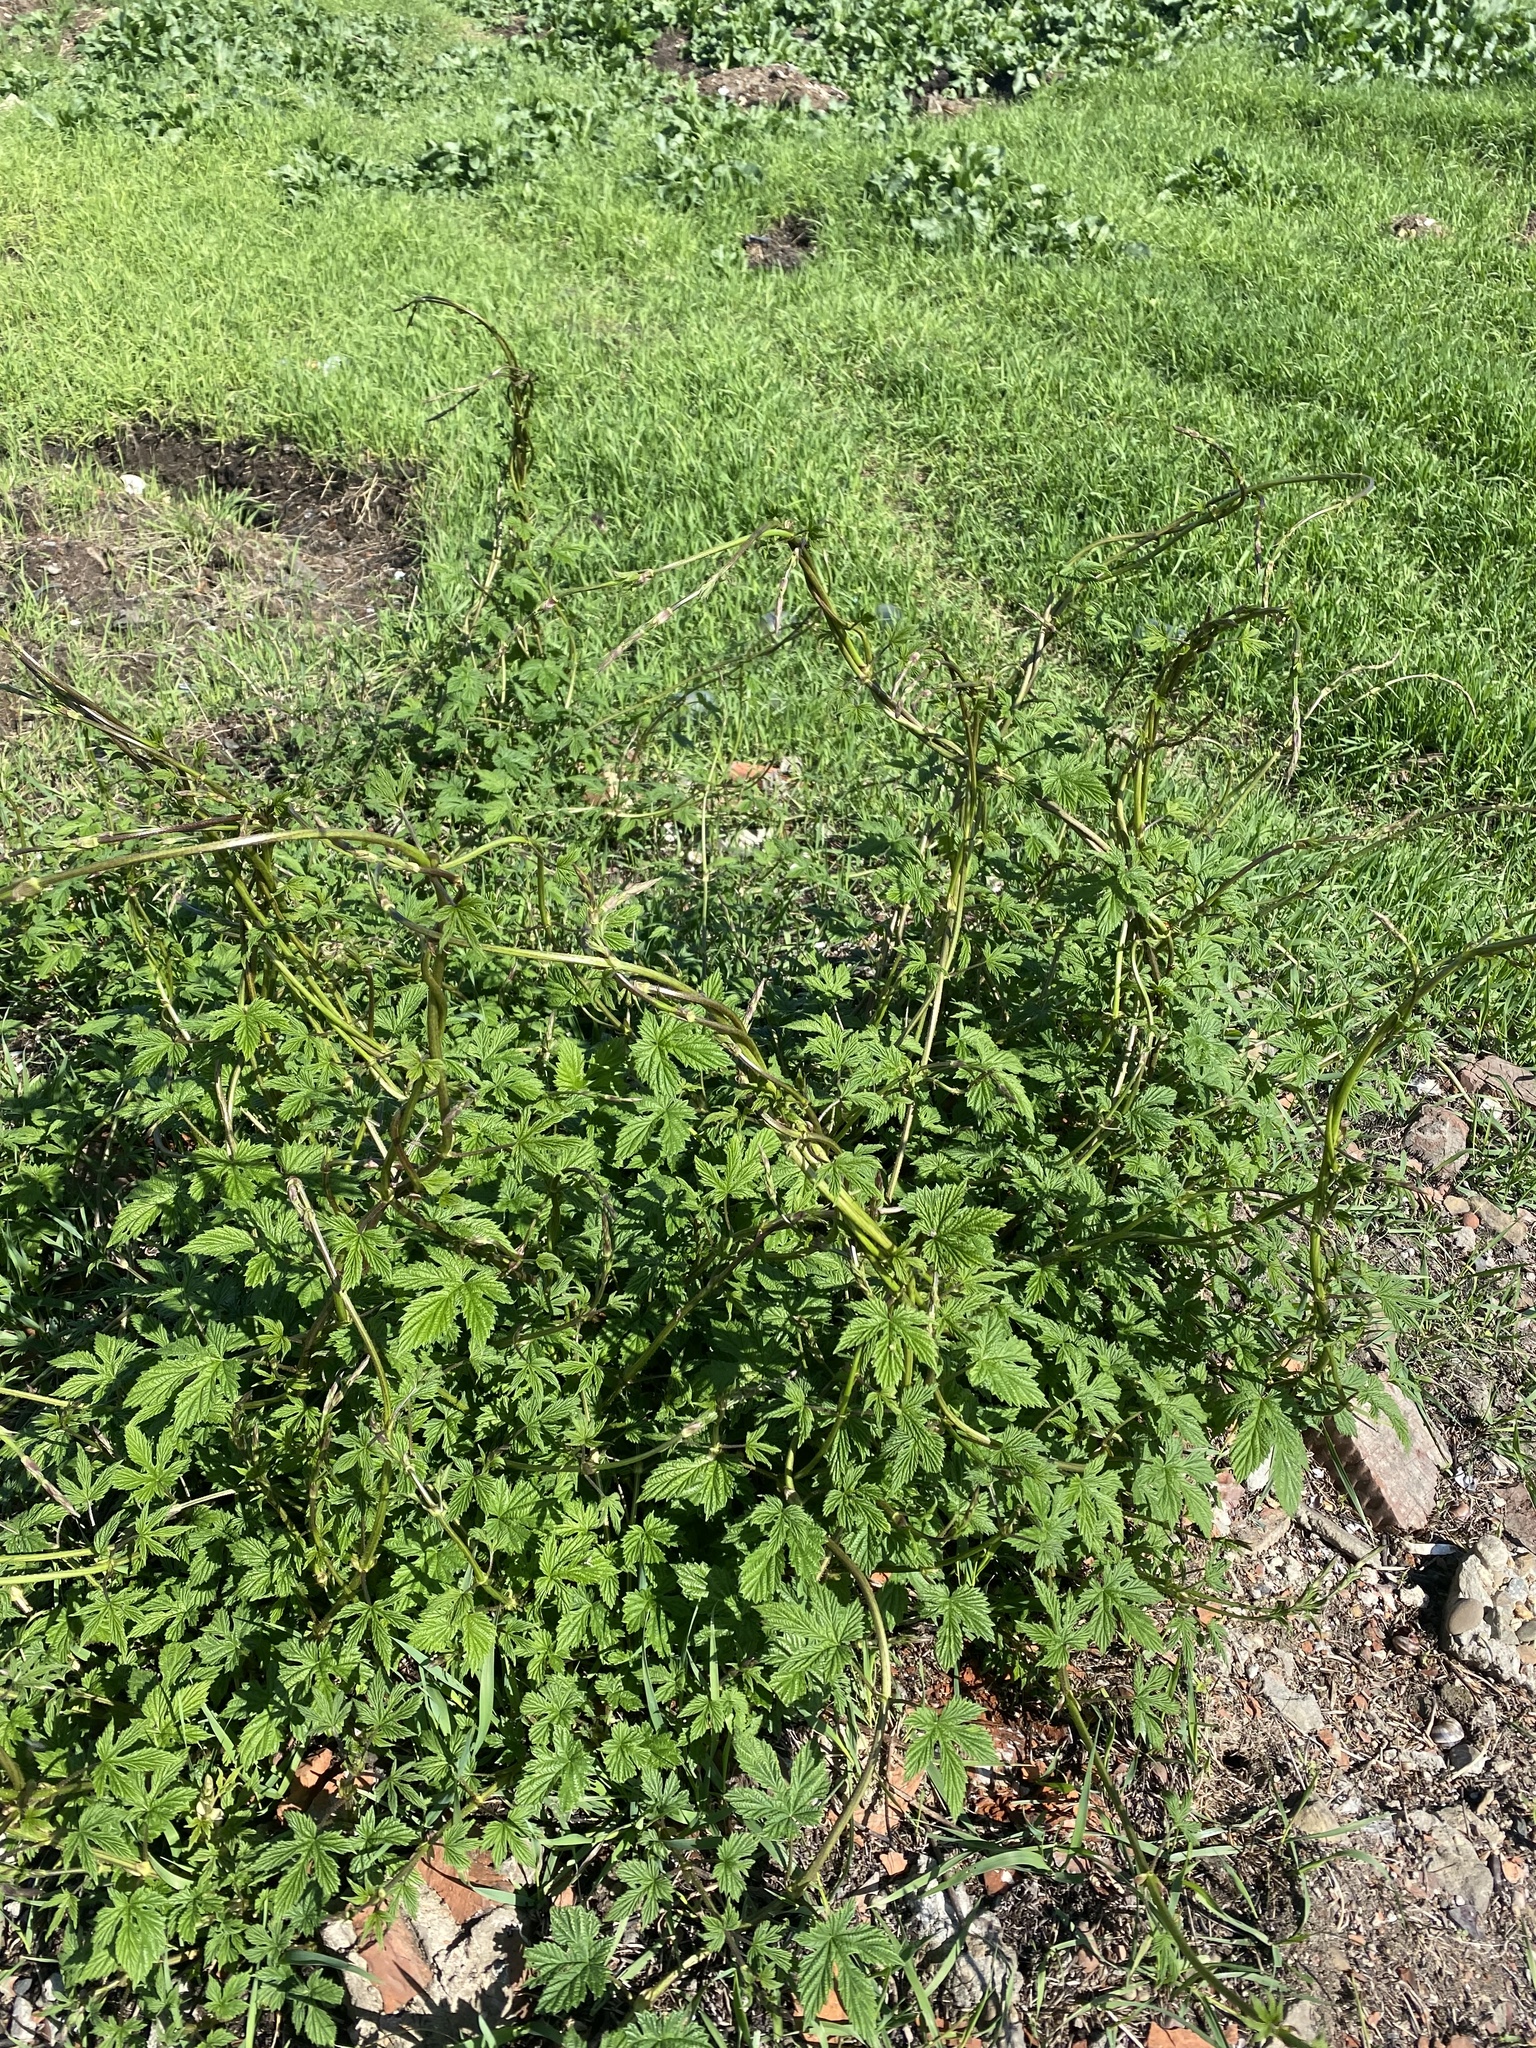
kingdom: Plantae
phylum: Tracheophyta
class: Magnoliopsida
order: Rosales
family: Cannabaceae
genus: Humulus
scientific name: Humulus lupulus
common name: Hop
